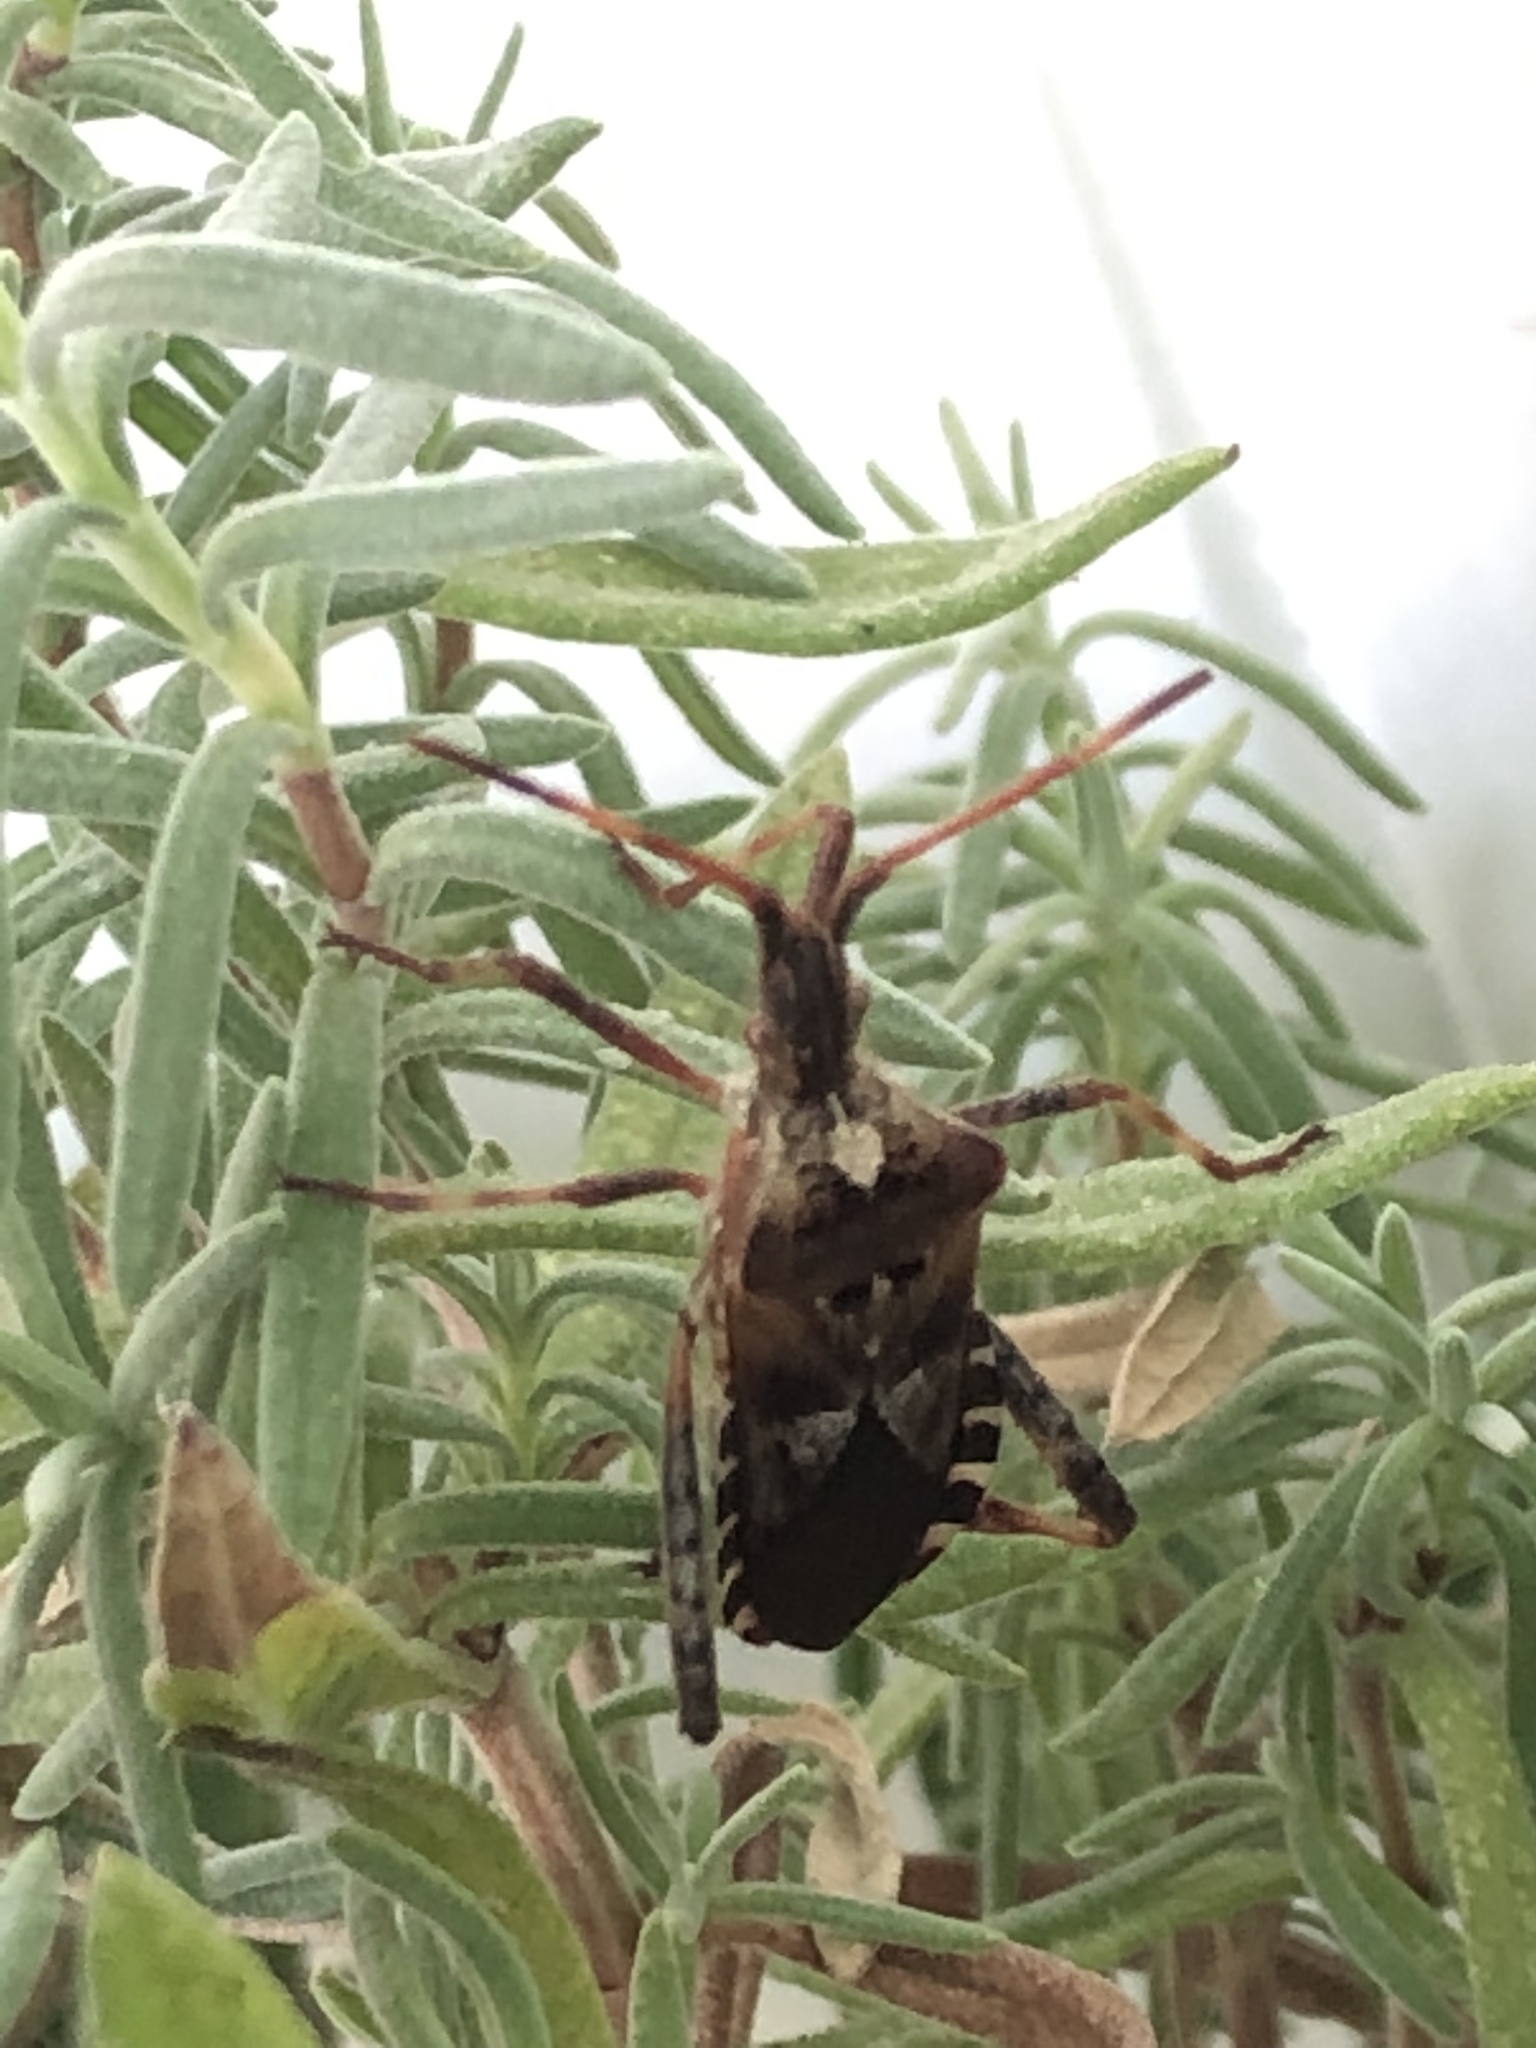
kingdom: Animalia
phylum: Arthropoda
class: Insecta
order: Hemiptera
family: Coreidae
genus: Leptoglossus
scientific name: Leptoglossus occidentalis
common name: Western conifer-seed bug
